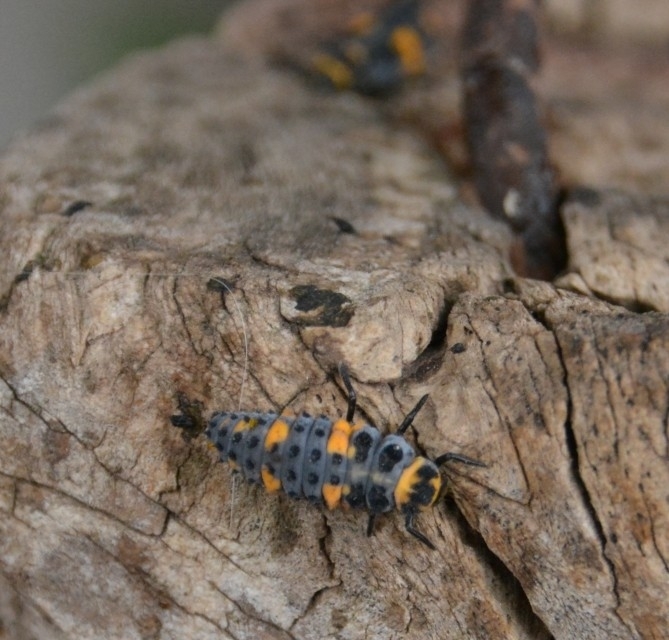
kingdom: Animalia
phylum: Arthropoda
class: Insecta
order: Coleoptera
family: Coccinellidae
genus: Hippodamia
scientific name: Hippodamia convergens
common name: Convergent lady beetle
